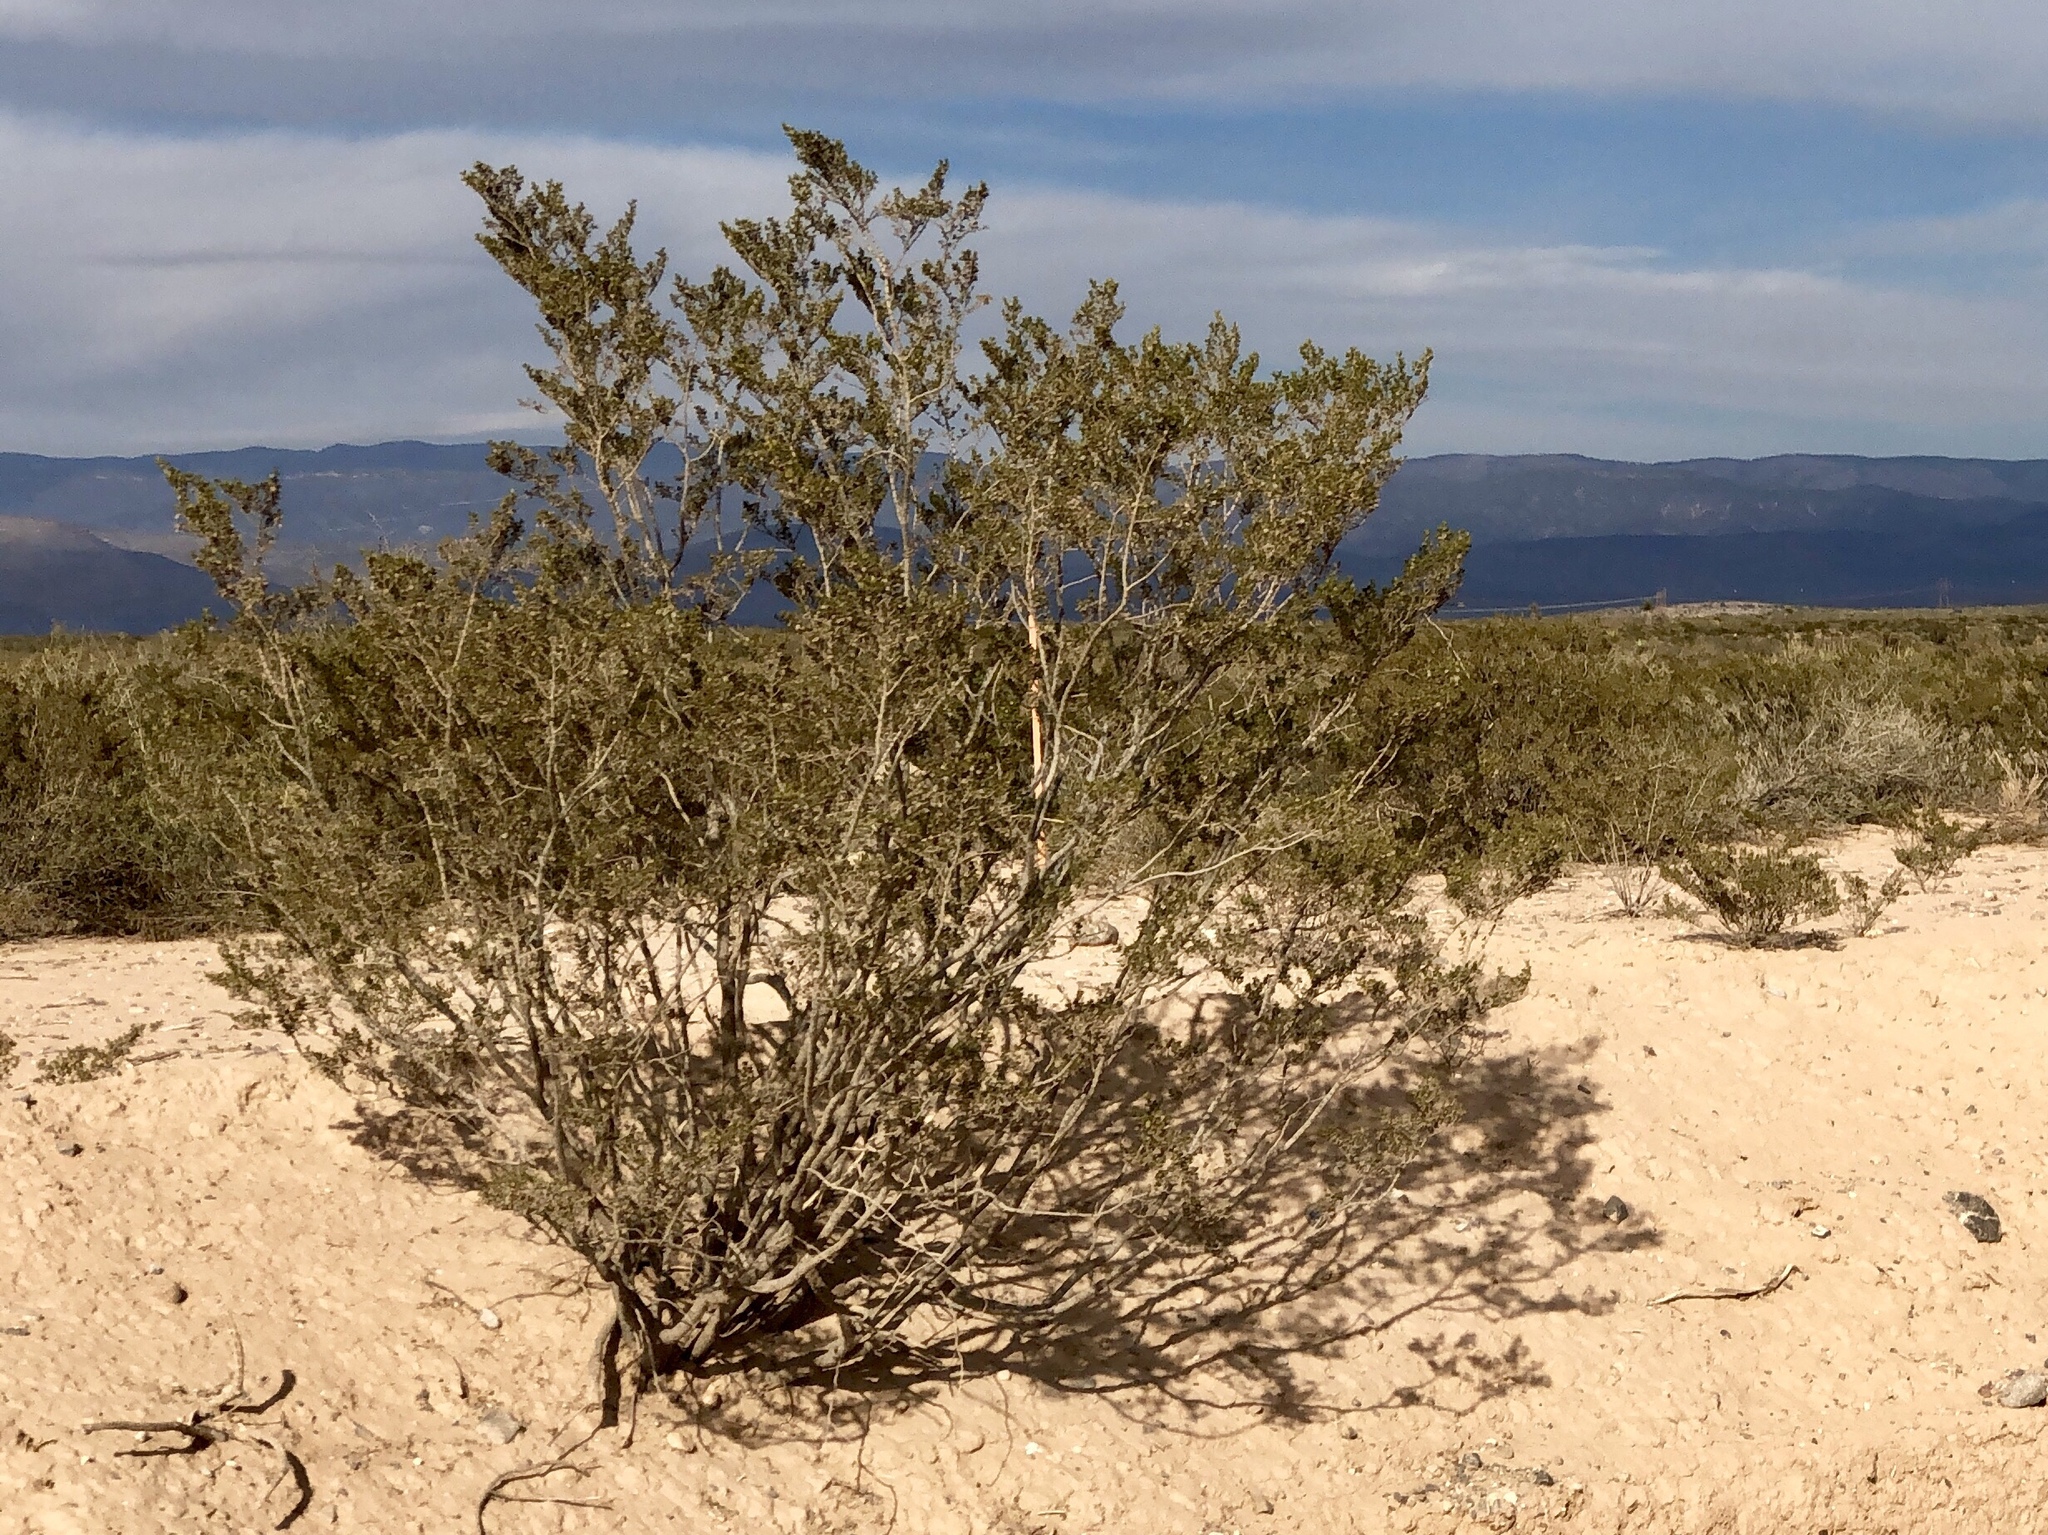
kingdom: Plantae
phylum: Tracheophyta
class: Magnoliopsida
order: Zygophyllales
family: Zygophyllaceae
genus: Larrea
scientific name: Larrea tridentata
